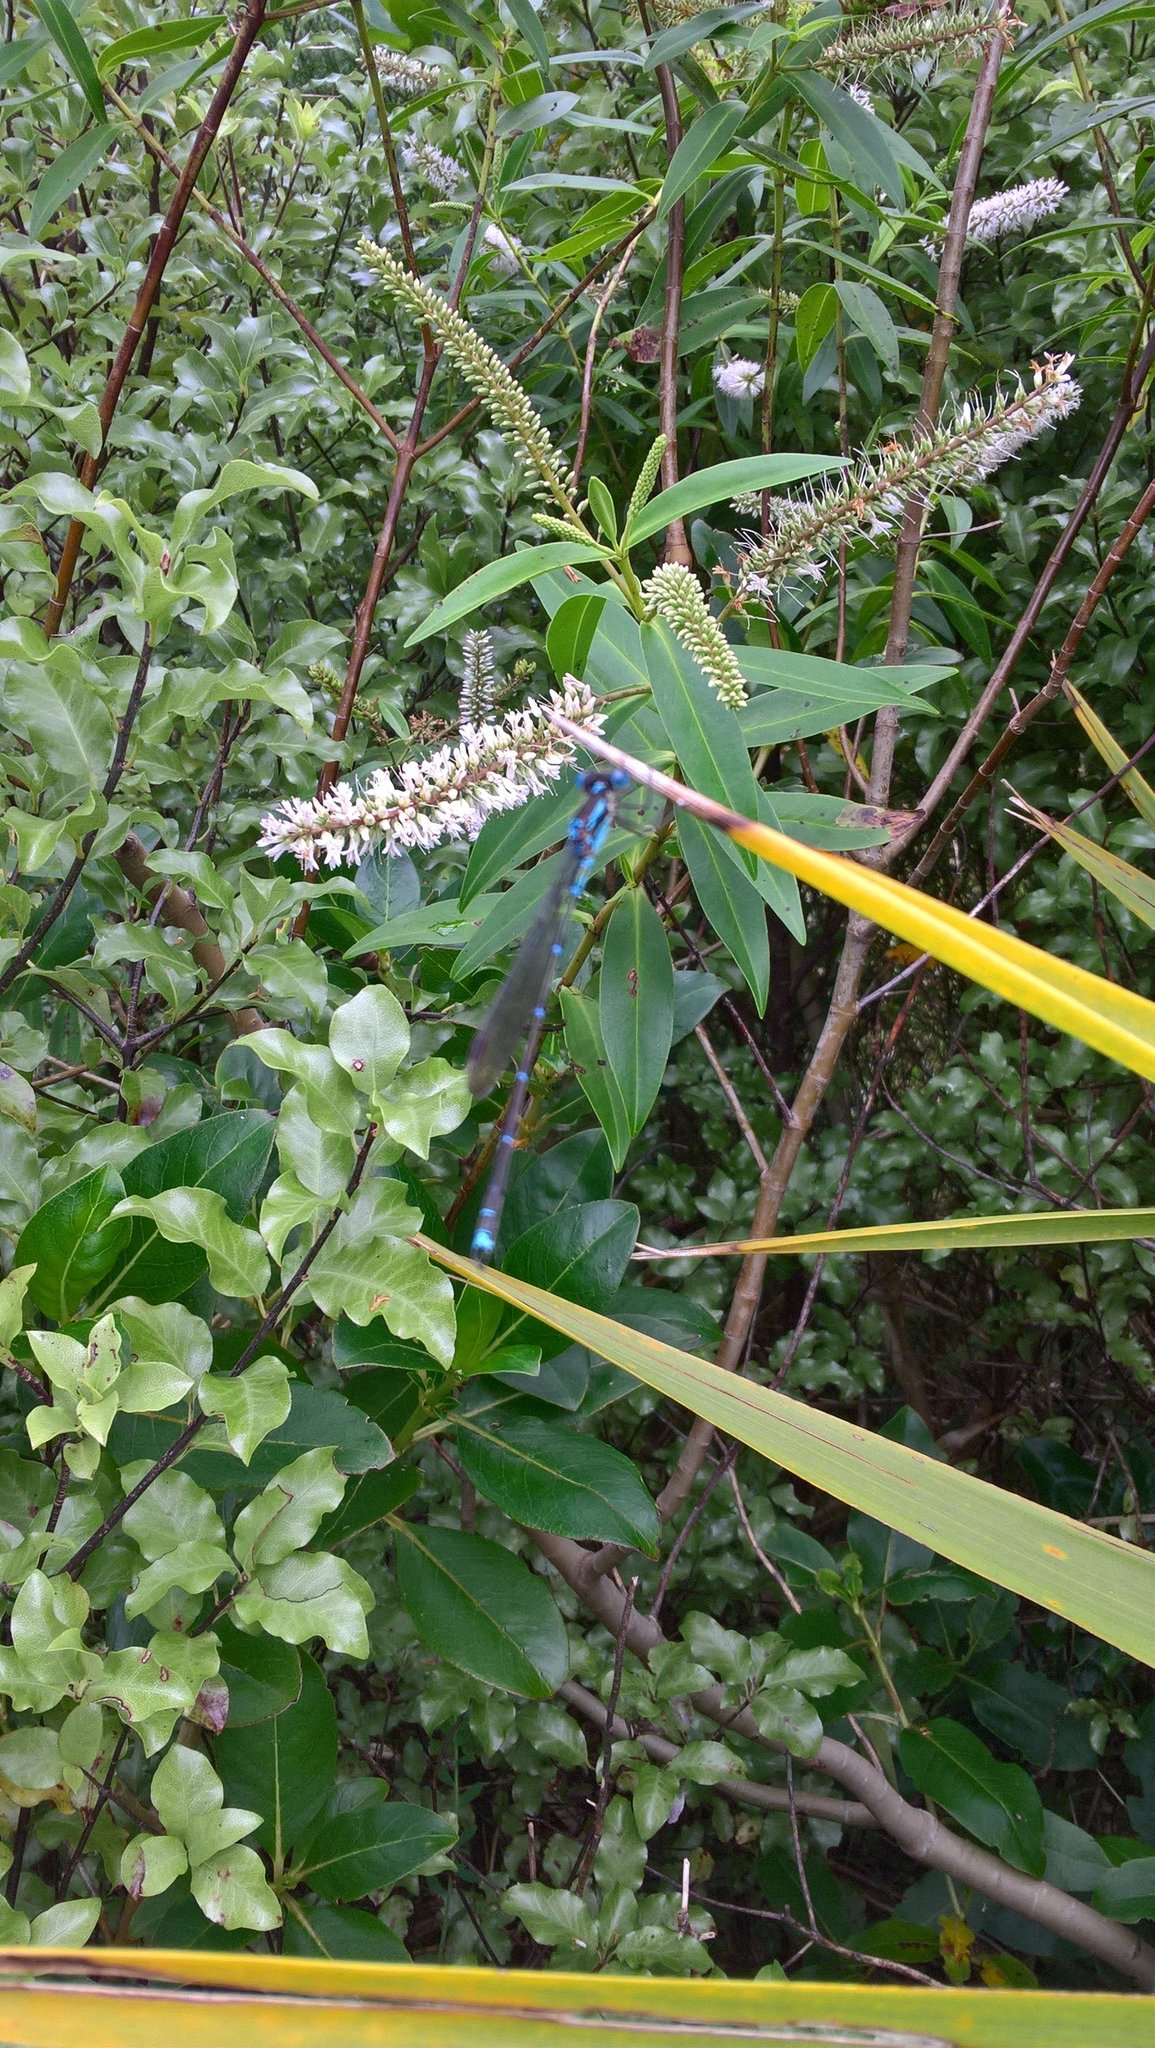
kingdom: Animalia
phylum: Arthropoda
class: Insecta
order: Odonata
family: Lestidae
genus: Austrolestes
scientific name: Austrolestes colensonis
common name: Blue damselfly
